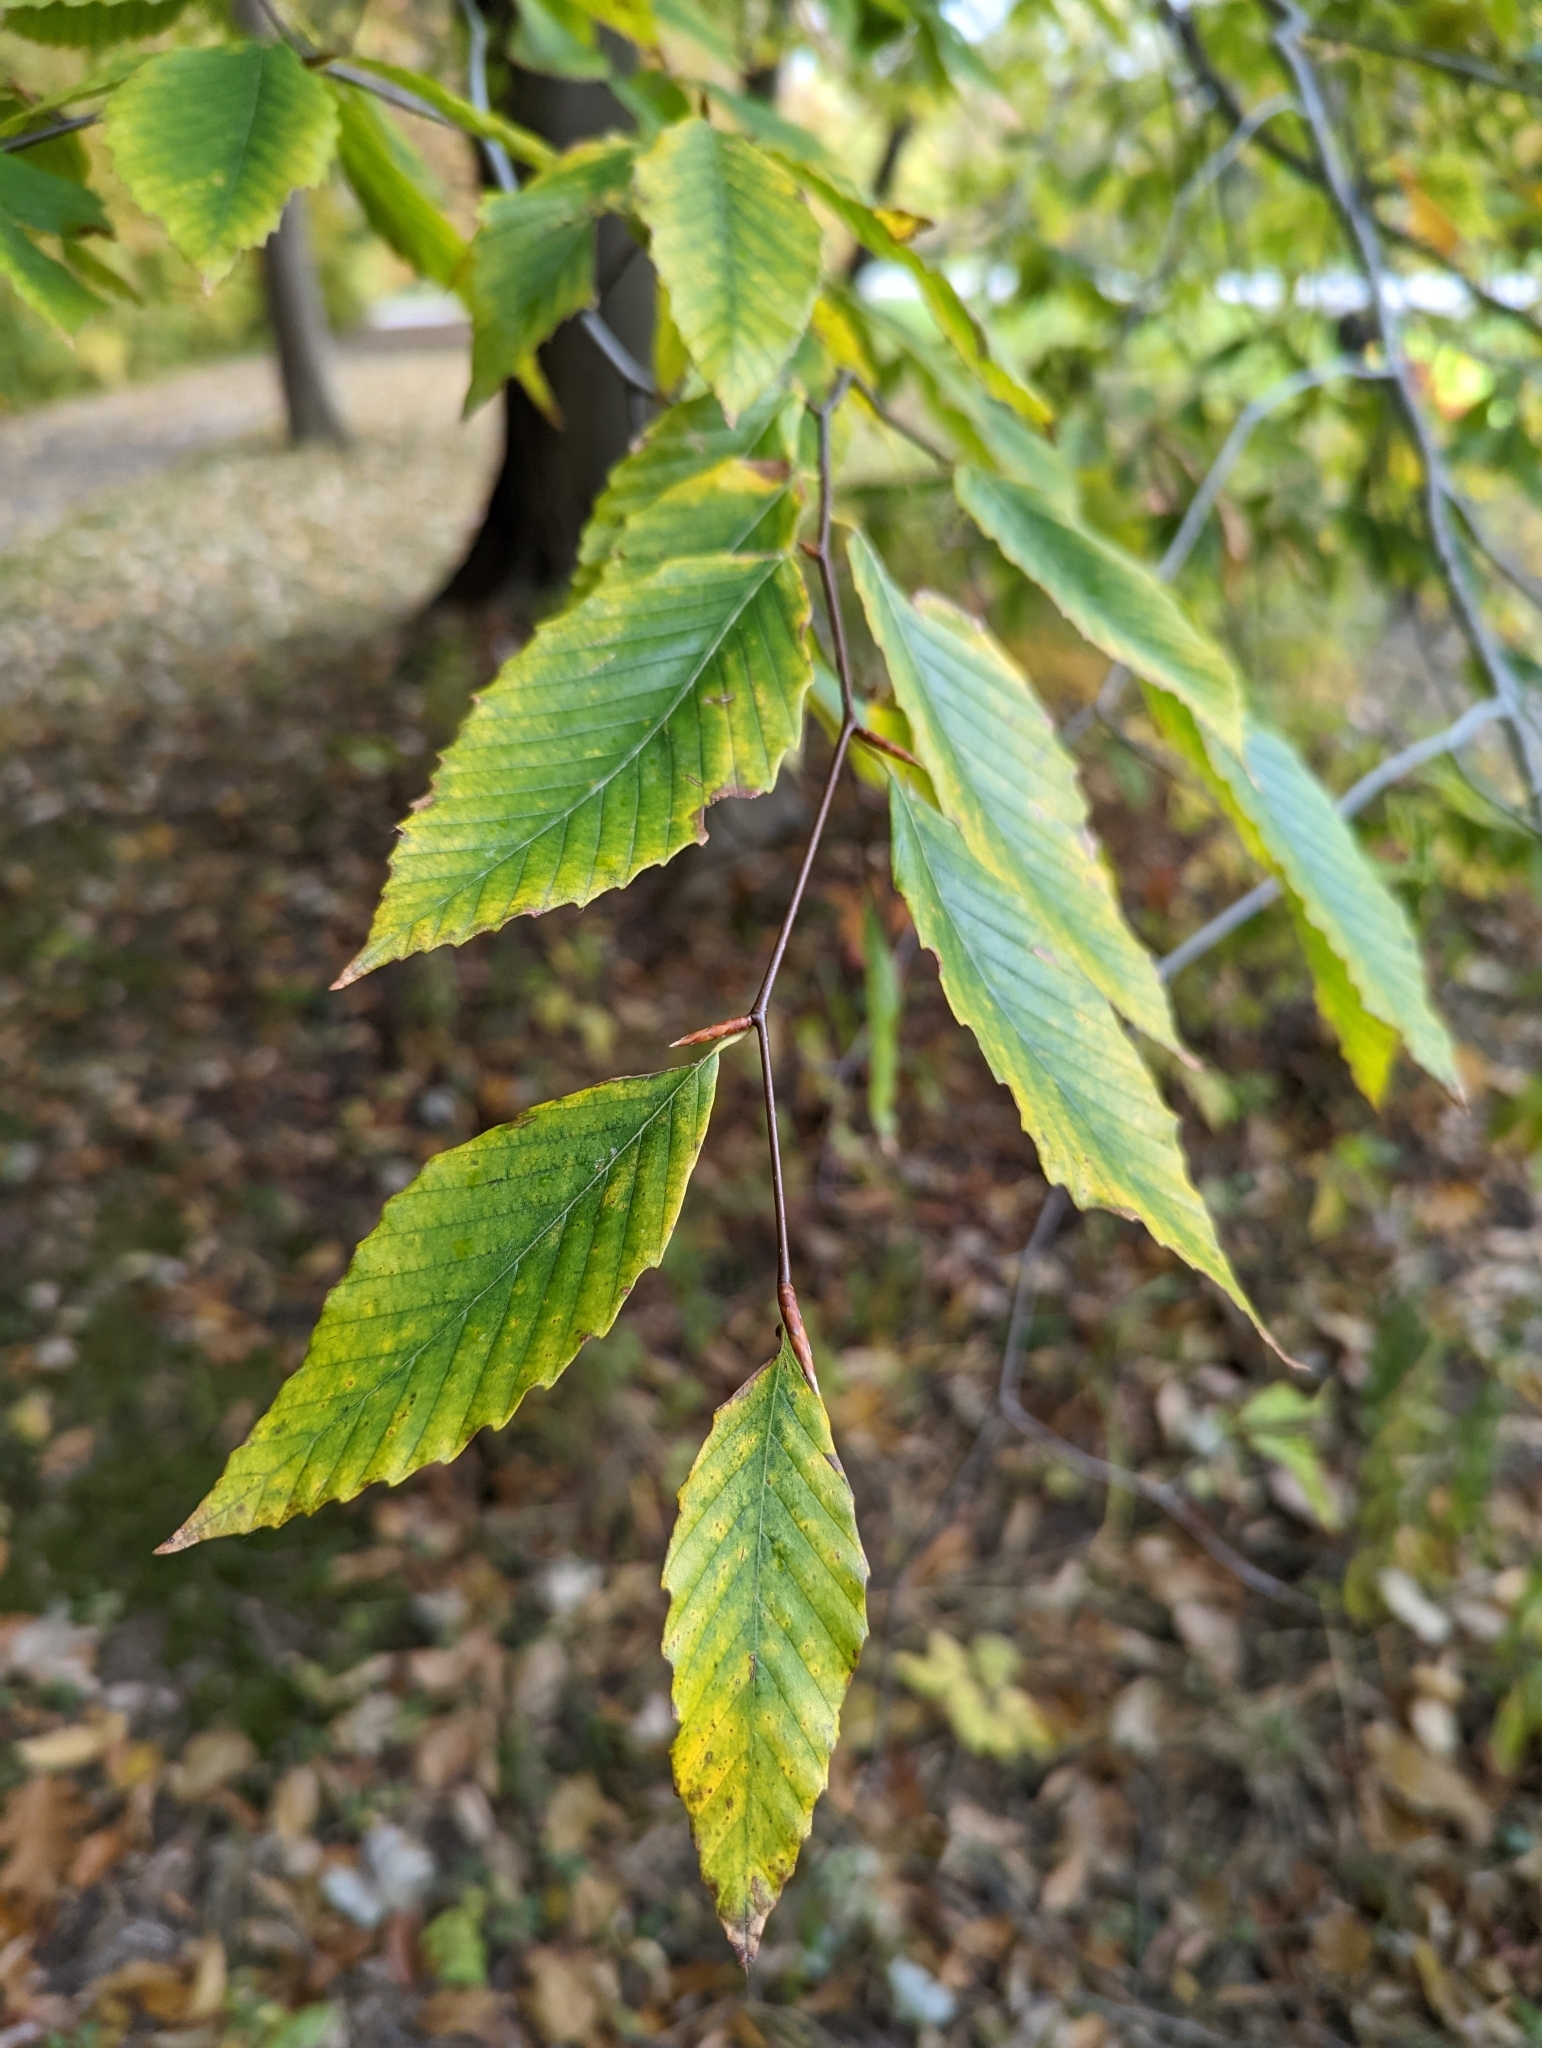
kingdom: Plantae
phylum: Tracheophyta
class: Magnoliopsida
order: Fagales
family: Fagaceae
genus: Fagus
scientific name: Fagus grandifolia
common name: American beech
